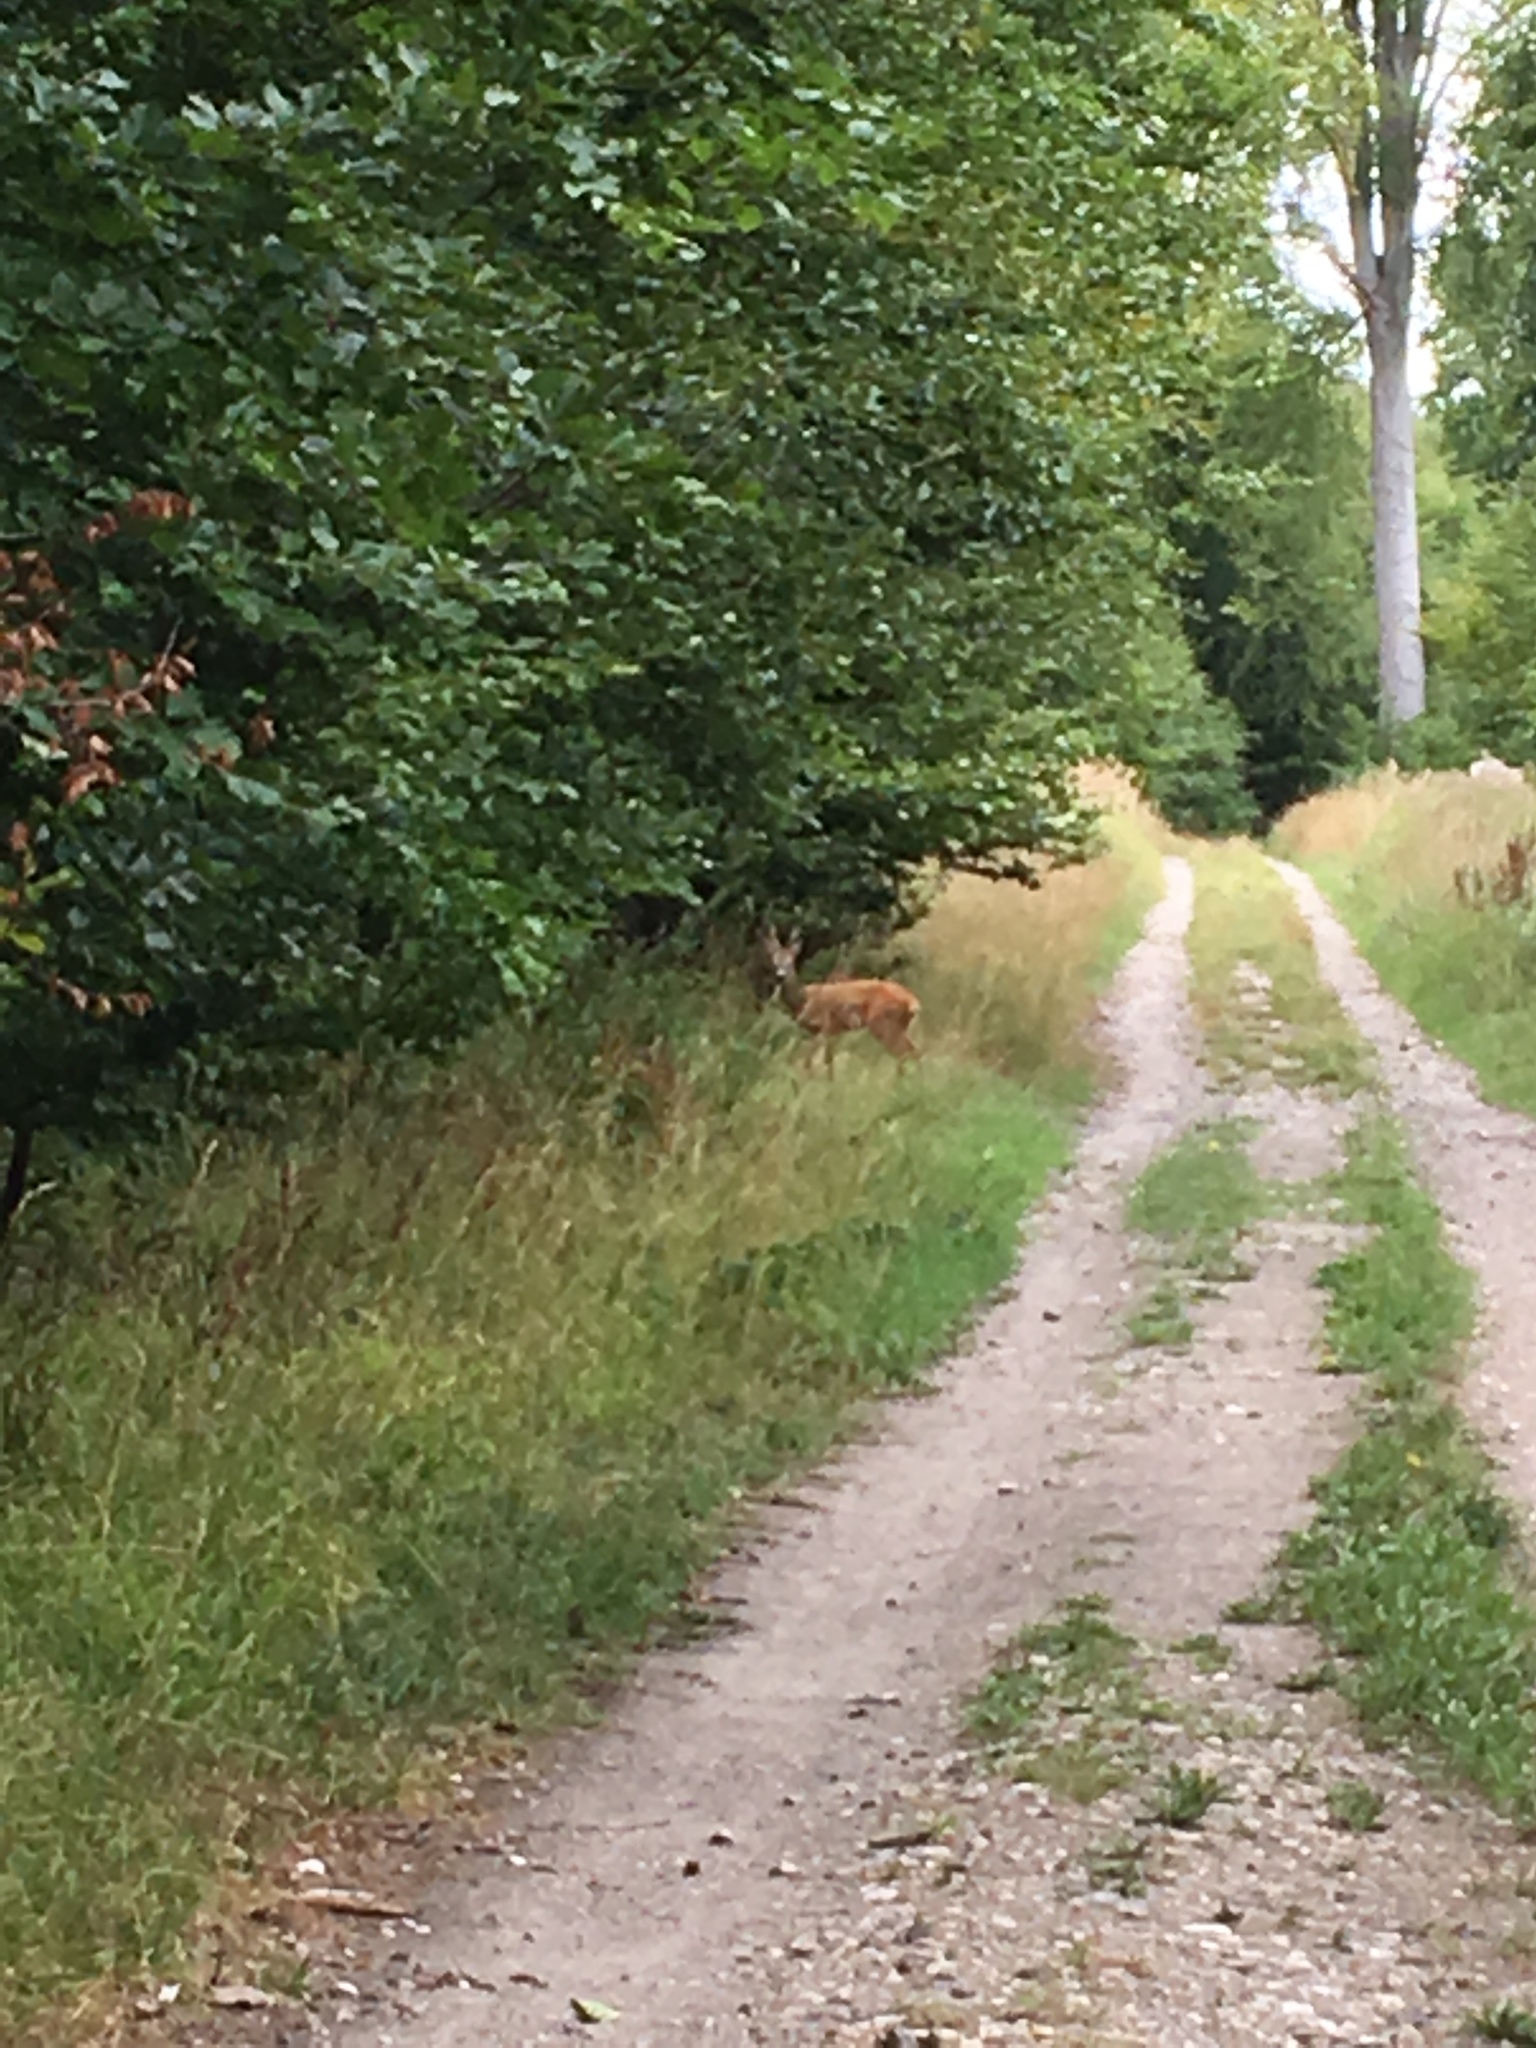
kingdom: Animalia
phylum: Chordata
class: Mammalia
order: Artiodactyla
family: Cervidae
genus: Capreolus
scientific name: Capreolus capreolus
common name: Western roe deer
